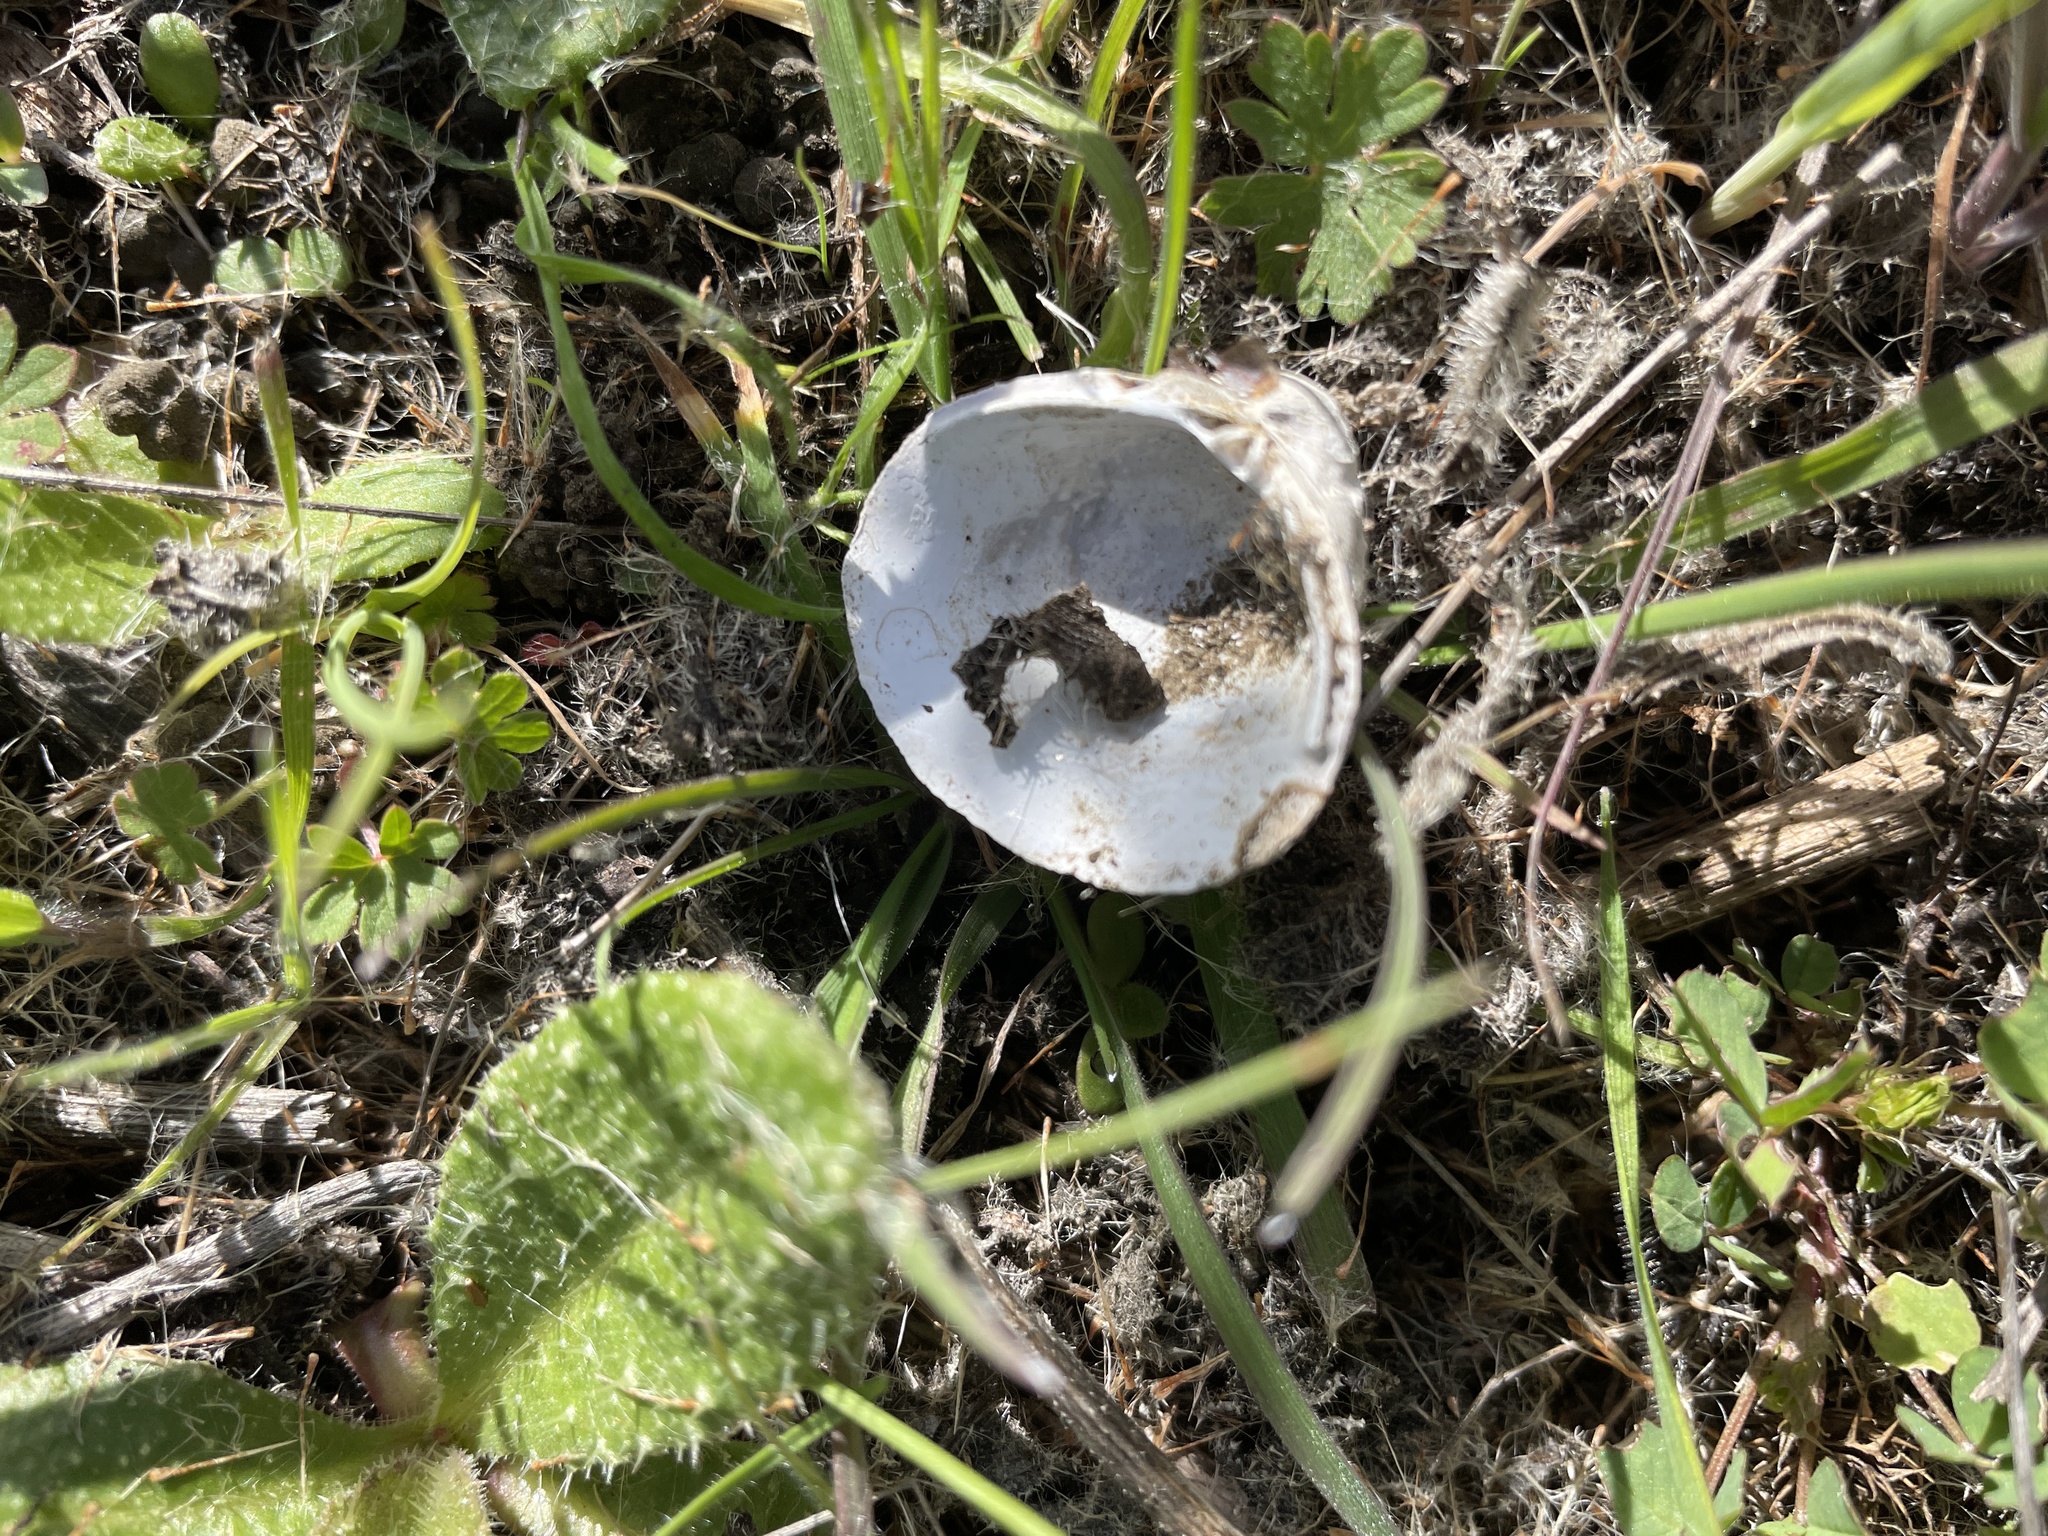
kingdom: Animalia
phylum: Mollusca
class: Bivalvia
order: Venerida
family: Cyrenidae
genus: Corbicula
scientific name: Corbicula fluminea
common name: Asian clam
